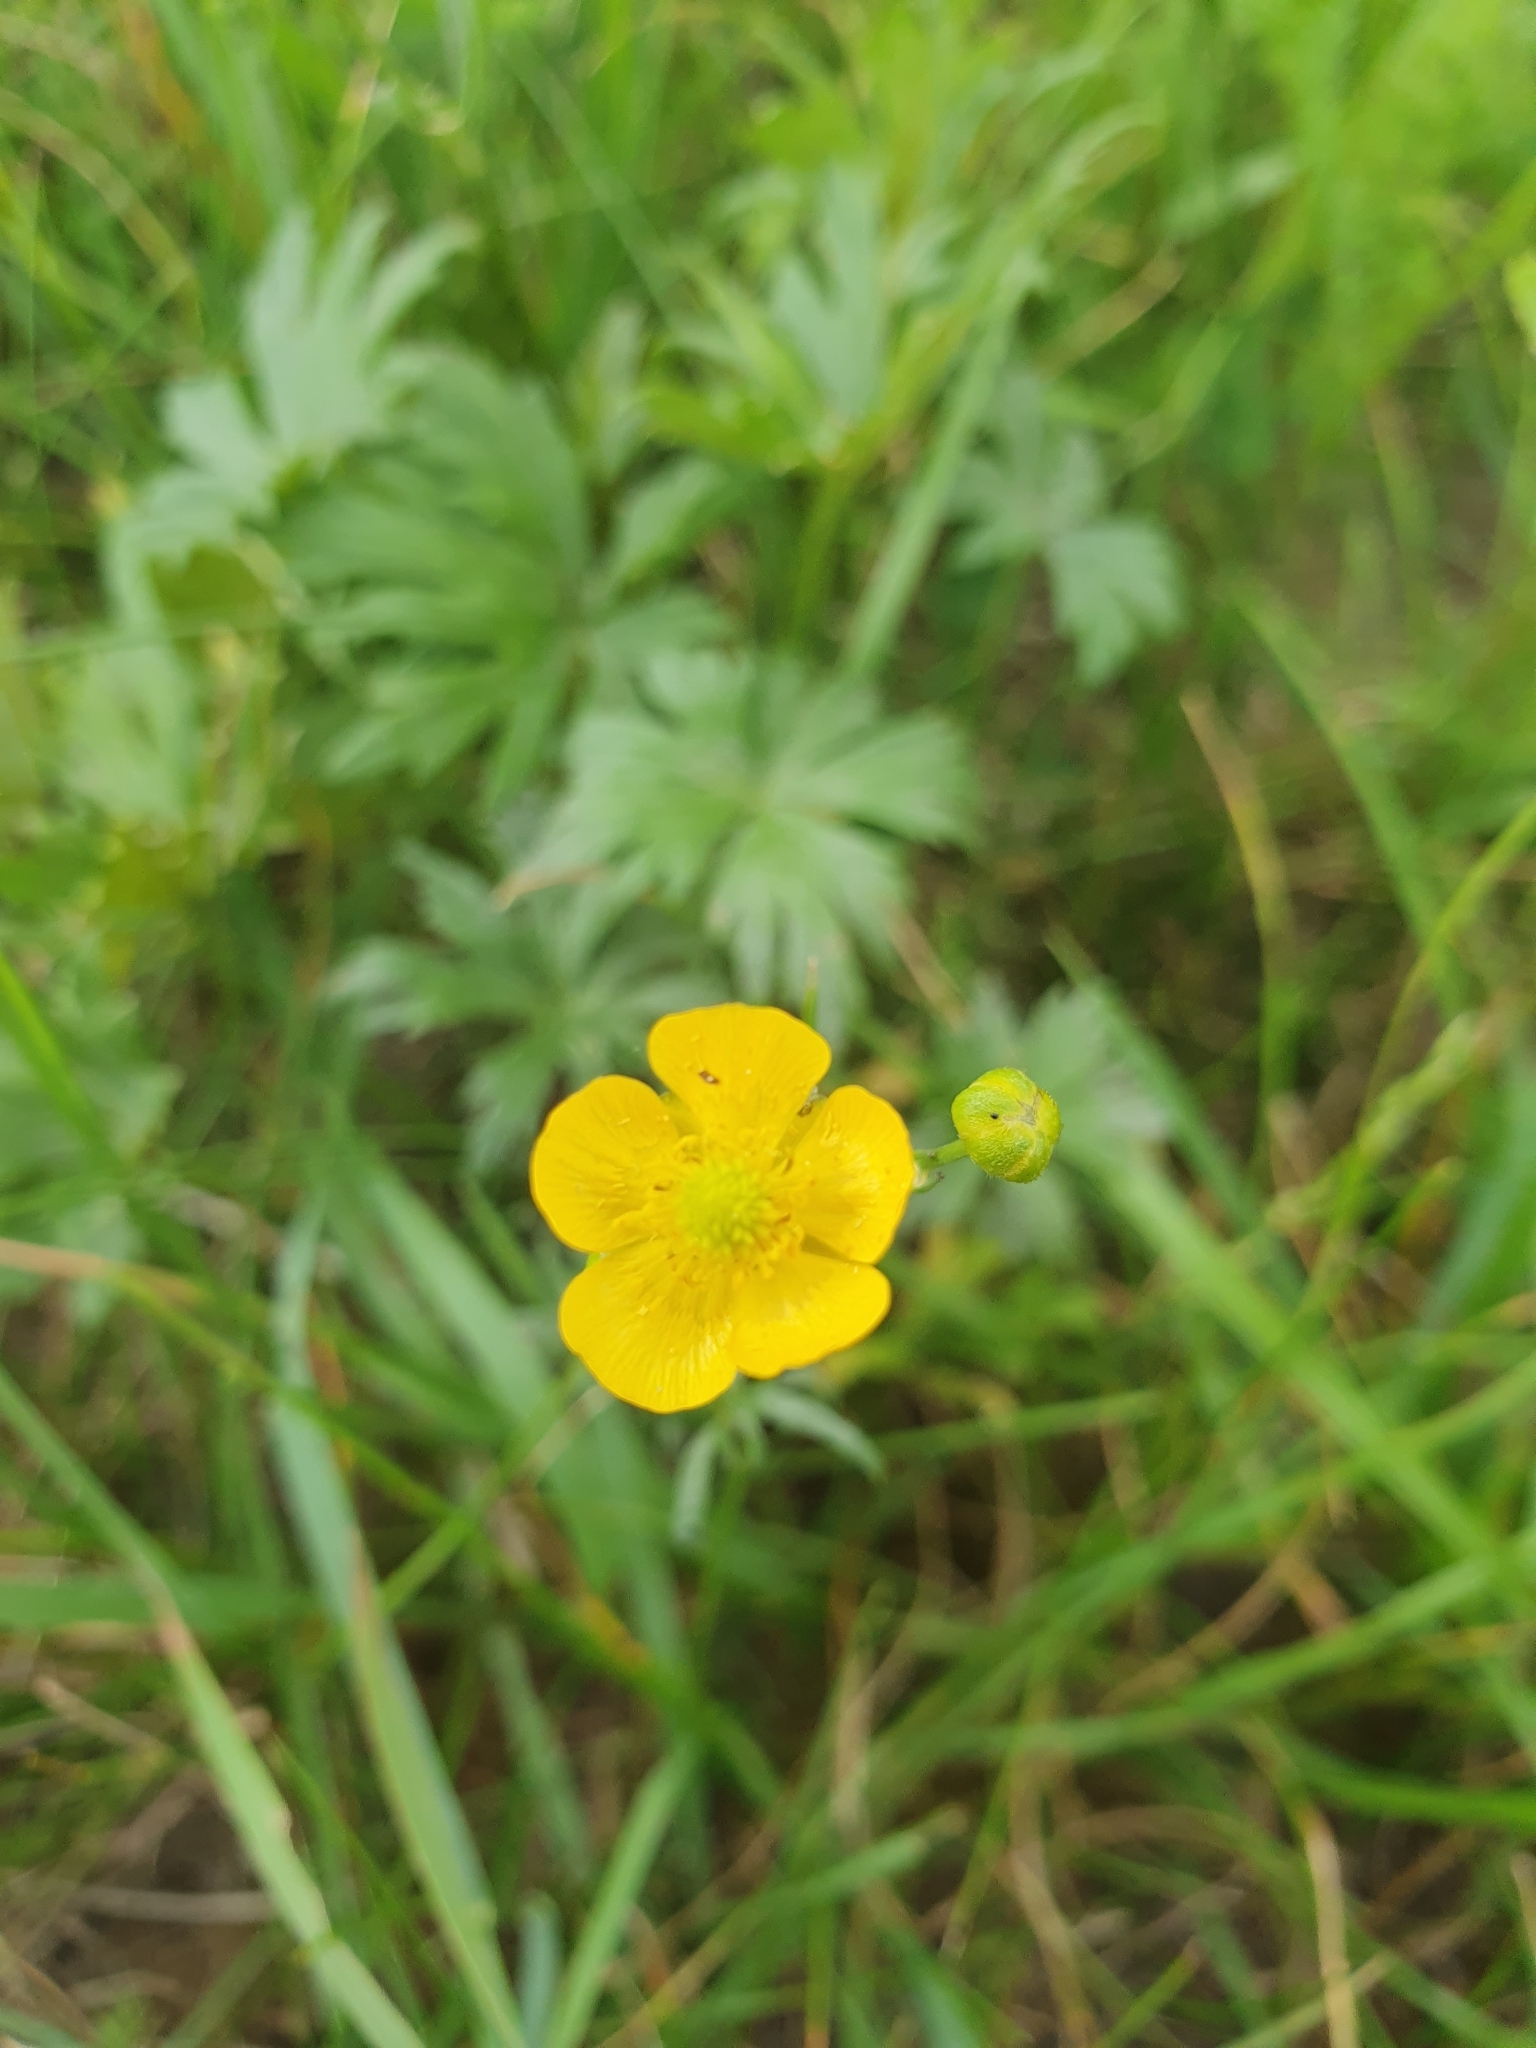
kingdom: Plantae
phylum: Tracheophyta
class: Magnoliopsida
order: Ranunculales
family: Ranunculaceae
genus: Ranunculus
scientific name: Ranunculus acris
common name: Meadow buttercup
